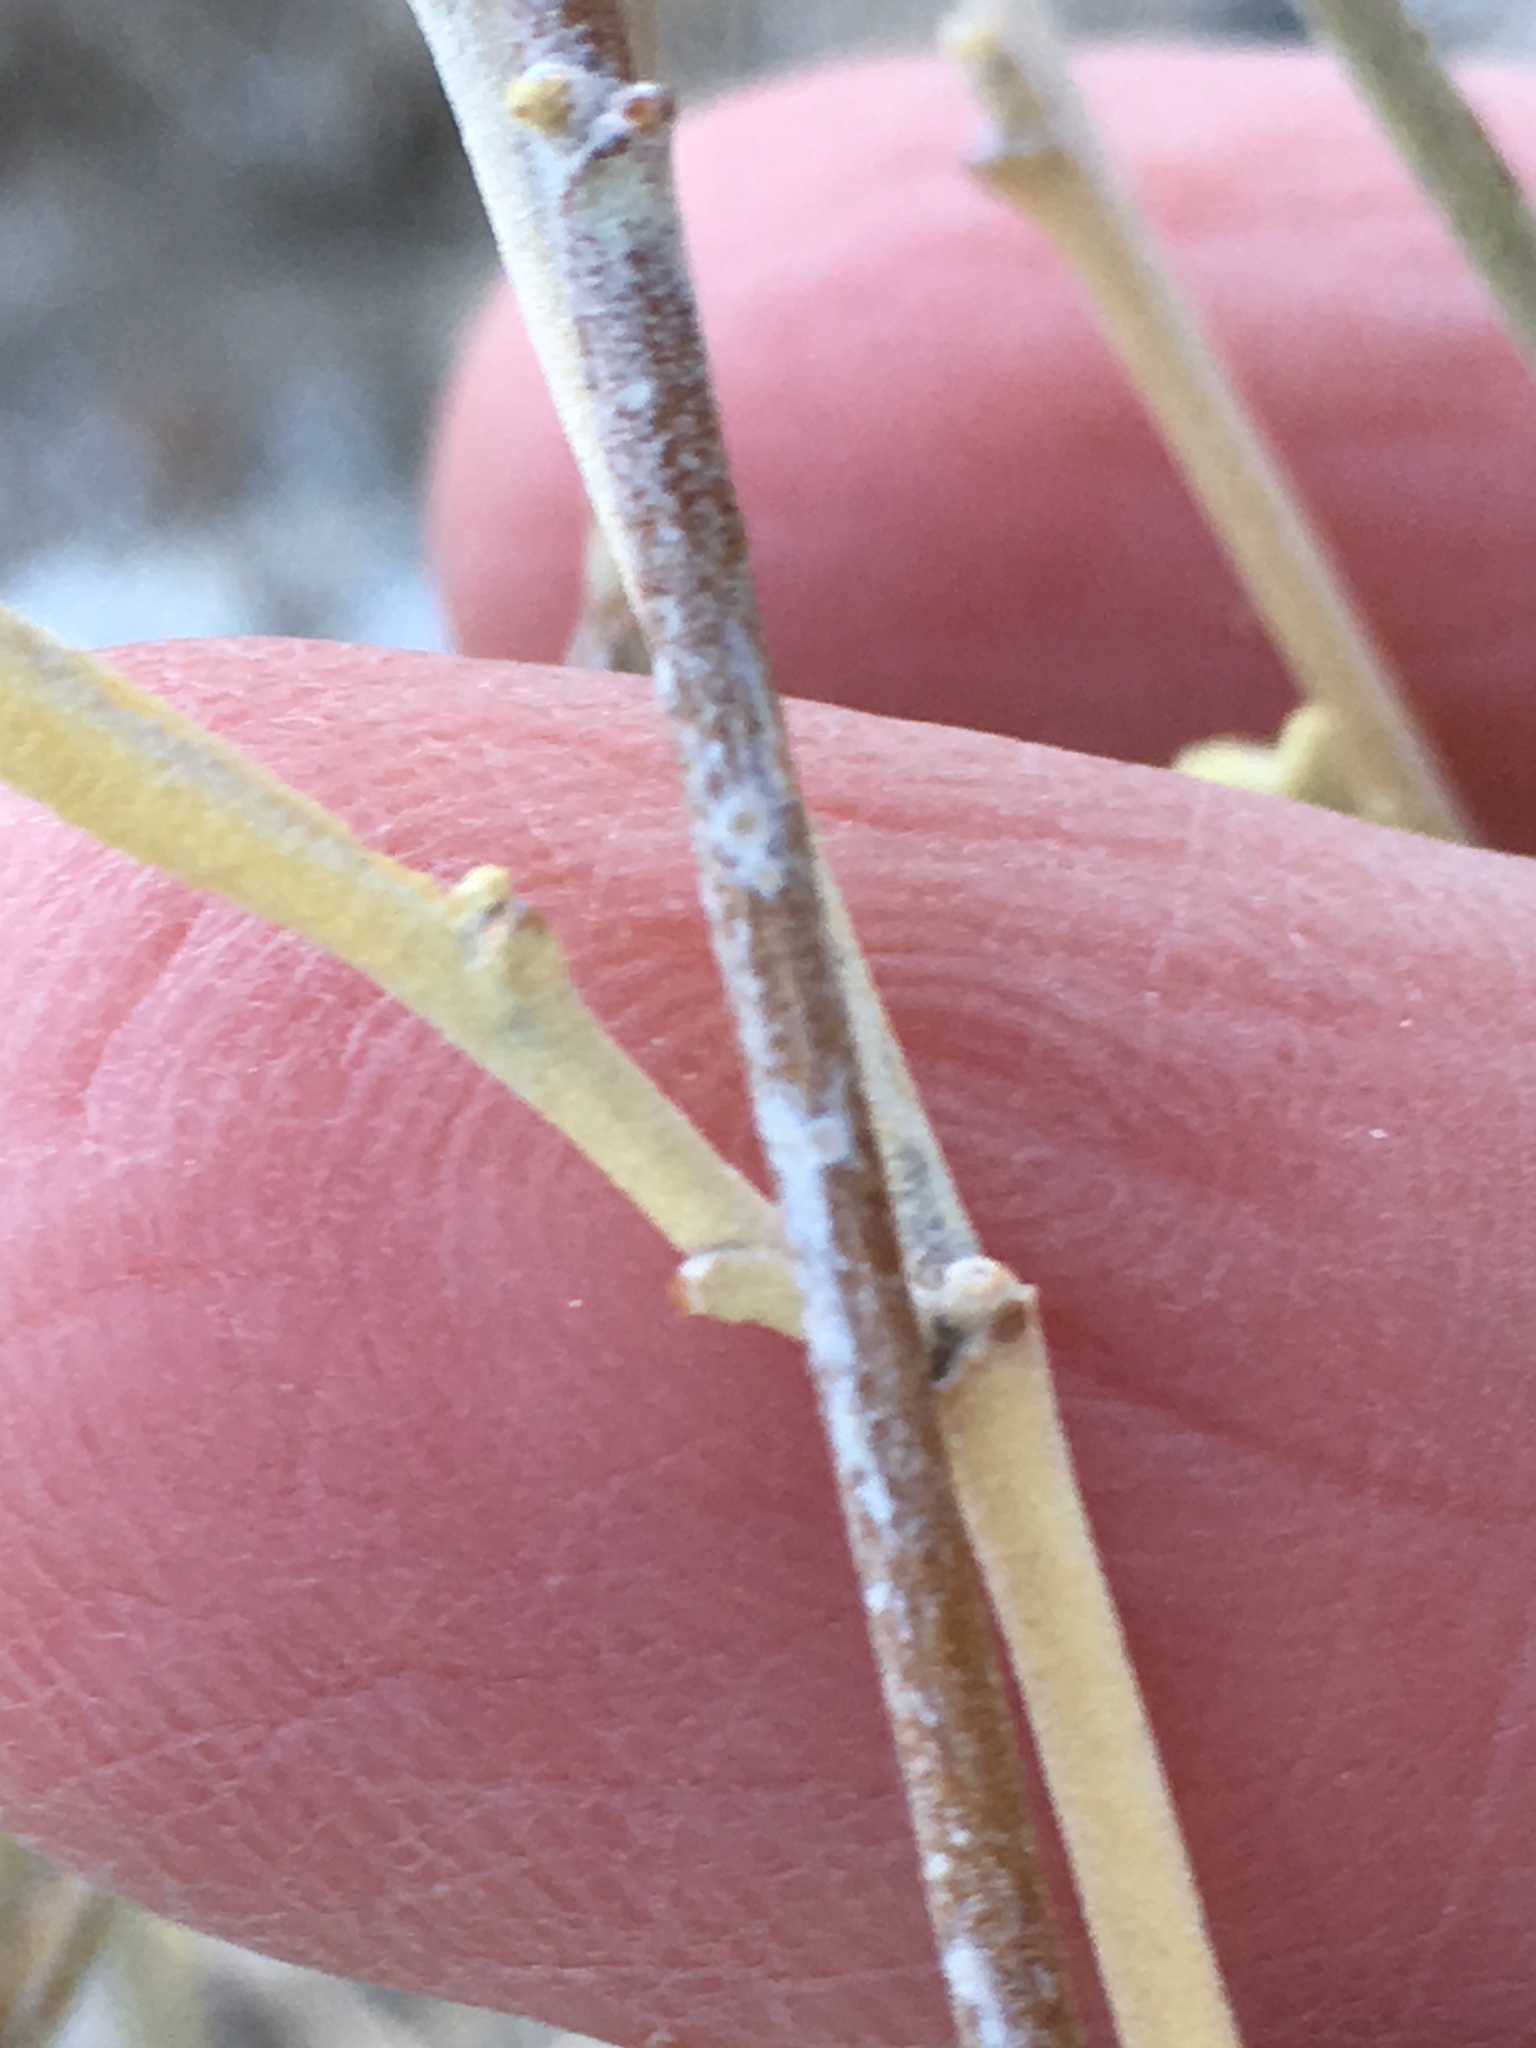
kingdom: Plantae
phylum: Tracheophyta
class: Magnoliopsida
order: Malvales
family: Malvaceae
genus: Hibiscus
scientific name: Hibiscus denudatus
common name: Paleface
